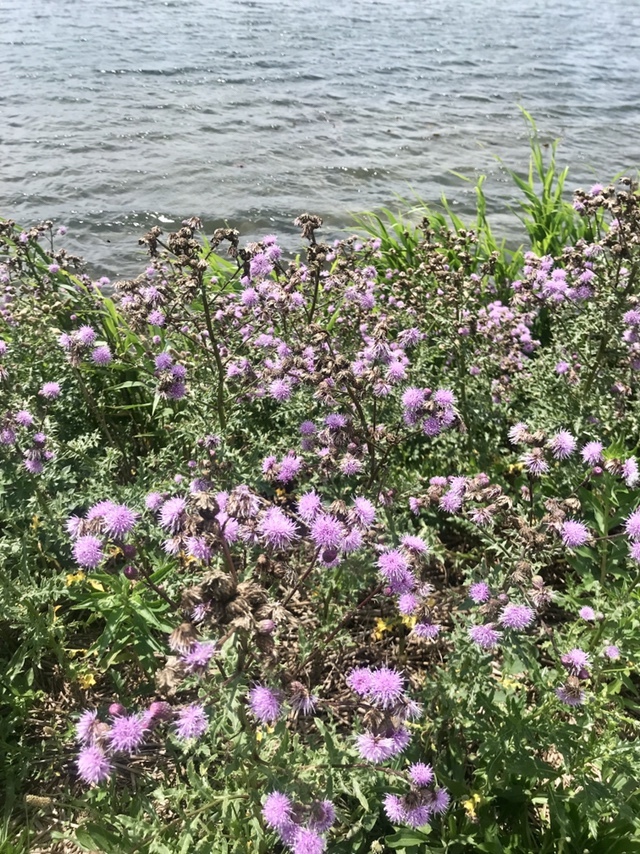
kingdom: Plantae
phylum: Tracheophyta
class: Magnoliopsida
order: Asterales
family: Asteraceae
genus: Cirsium
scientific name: Cirsium arvense
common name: Creeping thistle
